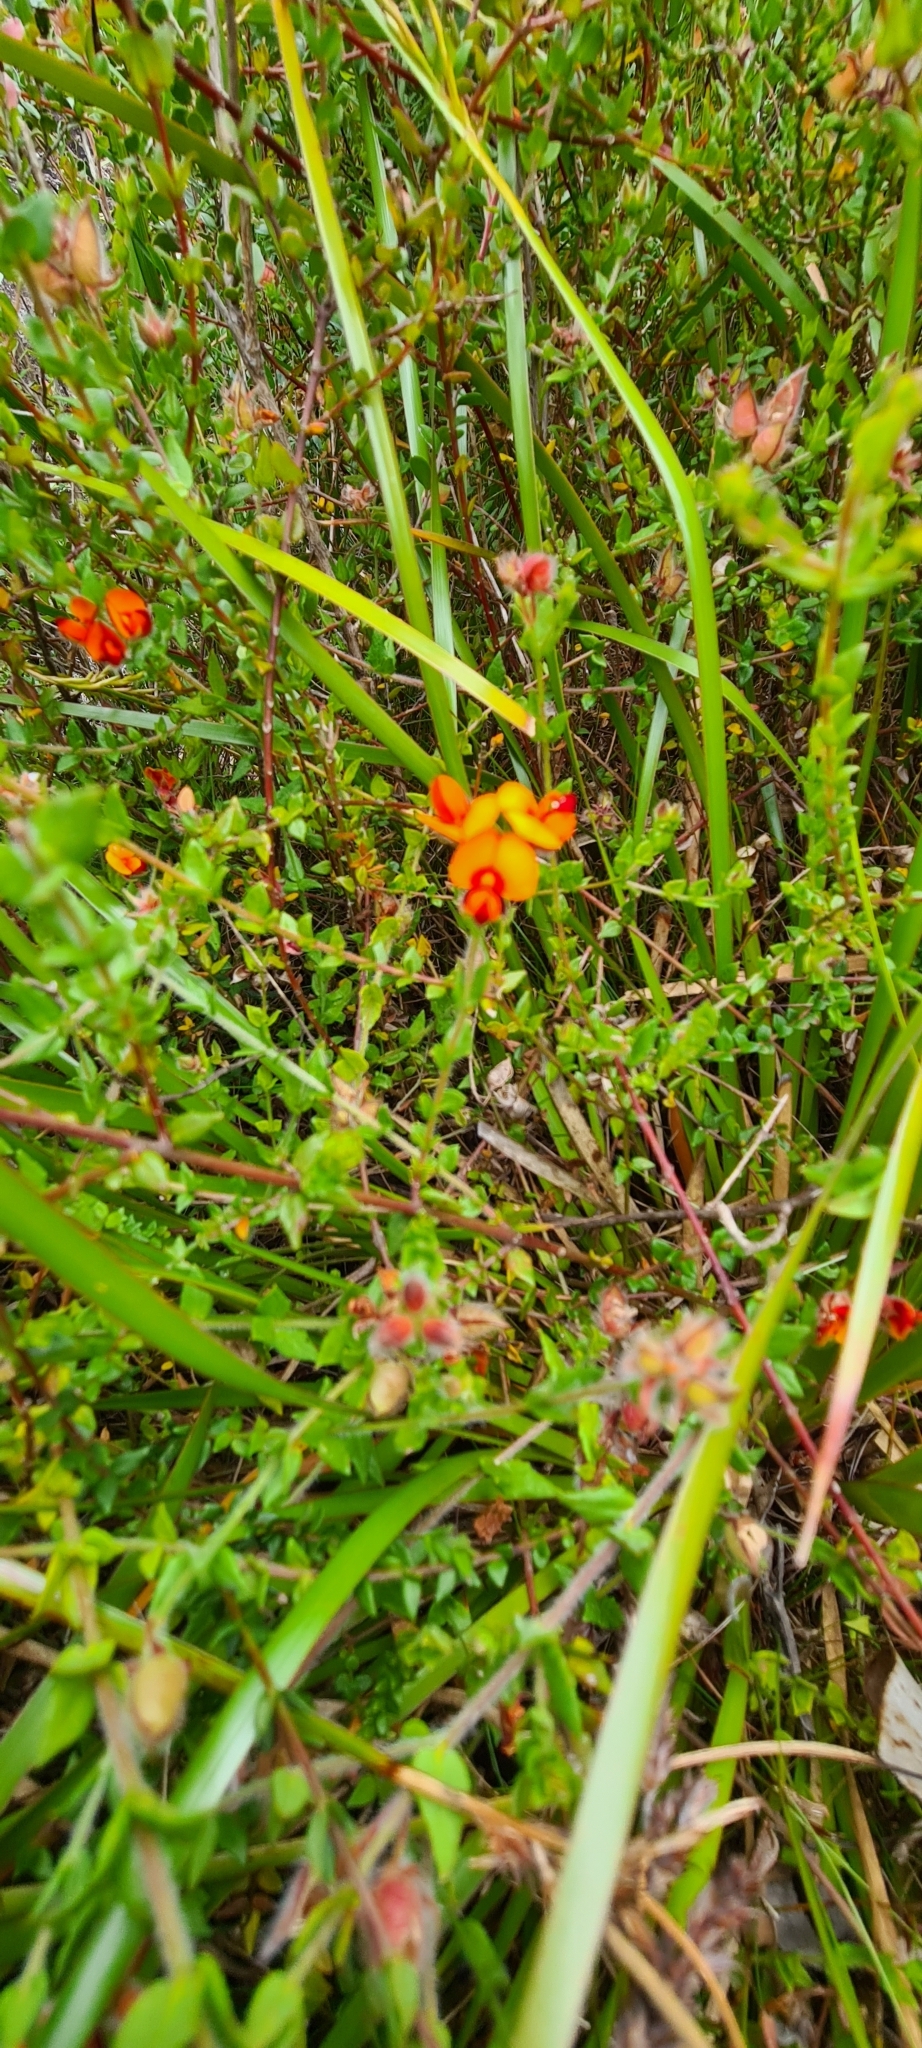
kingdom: Plantae
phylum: Tracheophyta
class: Magnoliopsida
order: Fabales
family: Fabaceae
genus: Oxylobium
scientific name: Oxylobium cordifolium
